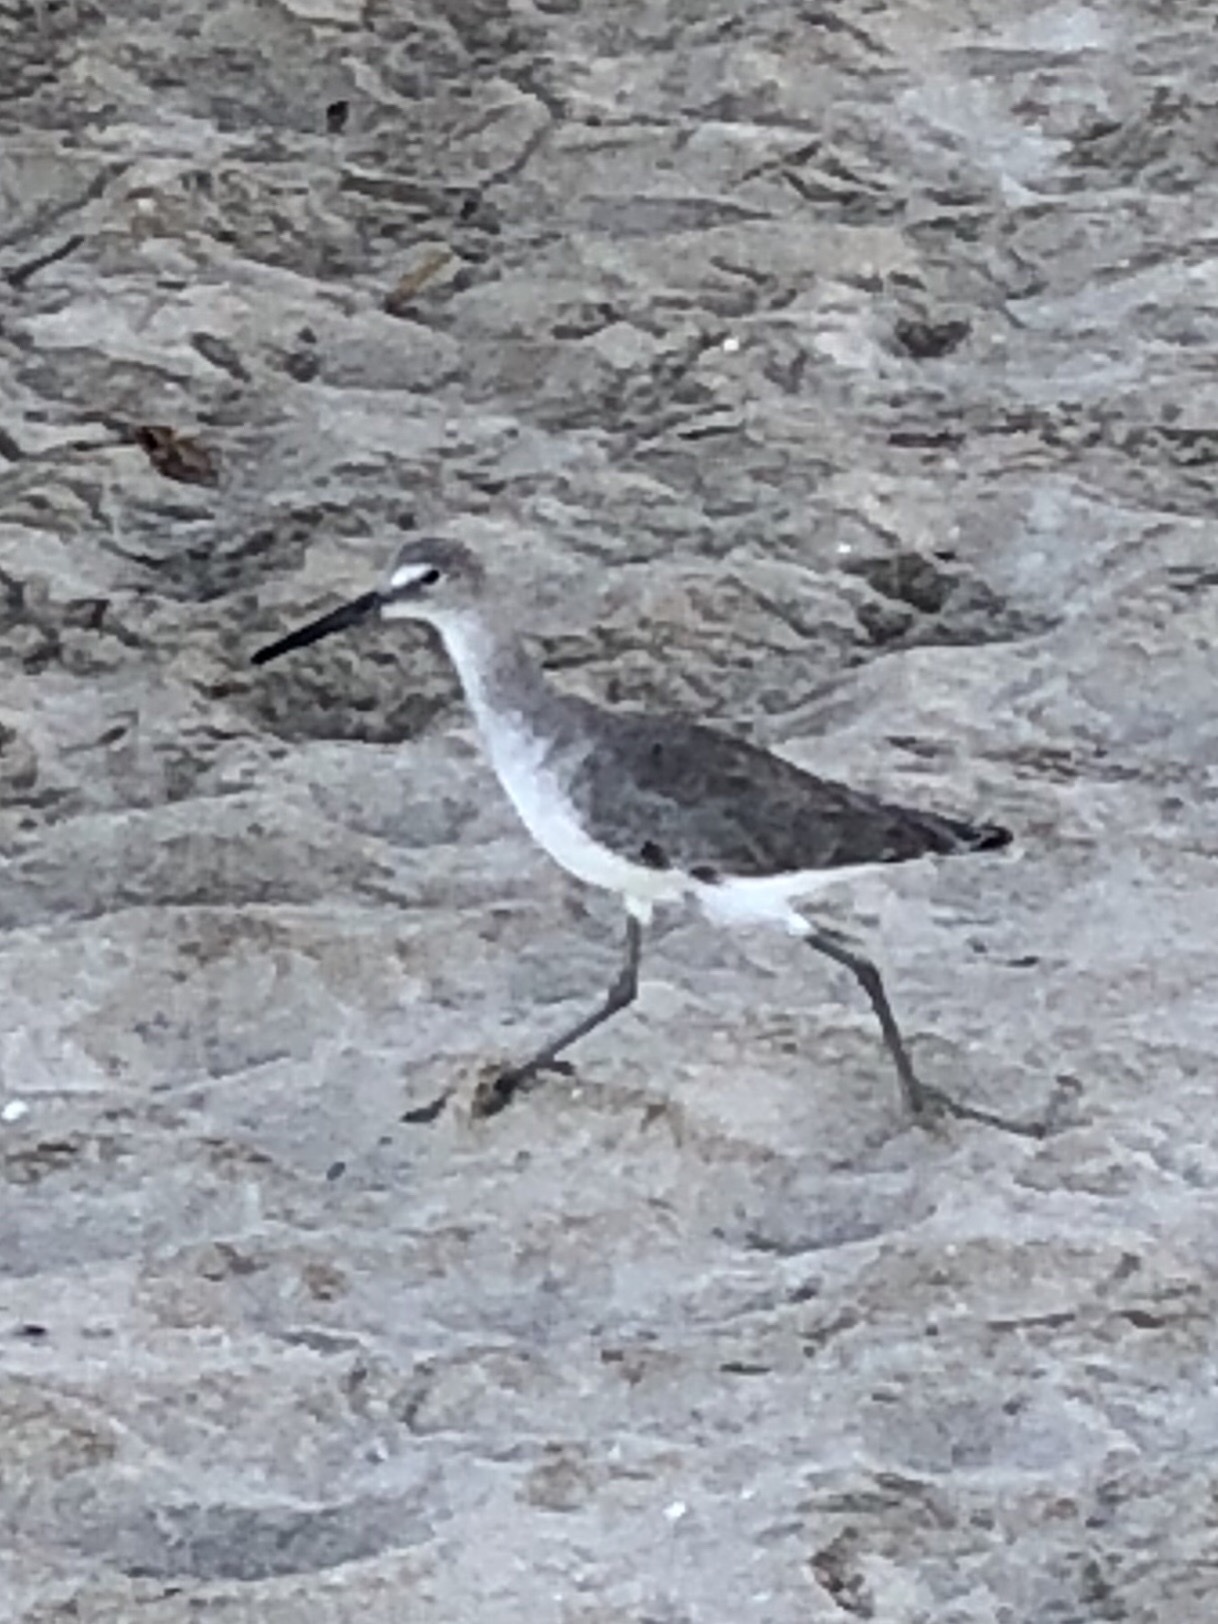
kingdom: Animalia
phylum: Chordata
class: Aves
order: Charadriiformes
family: Scolopacidae
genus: Tringa
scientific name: Tringa semipalmata
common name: Willet
